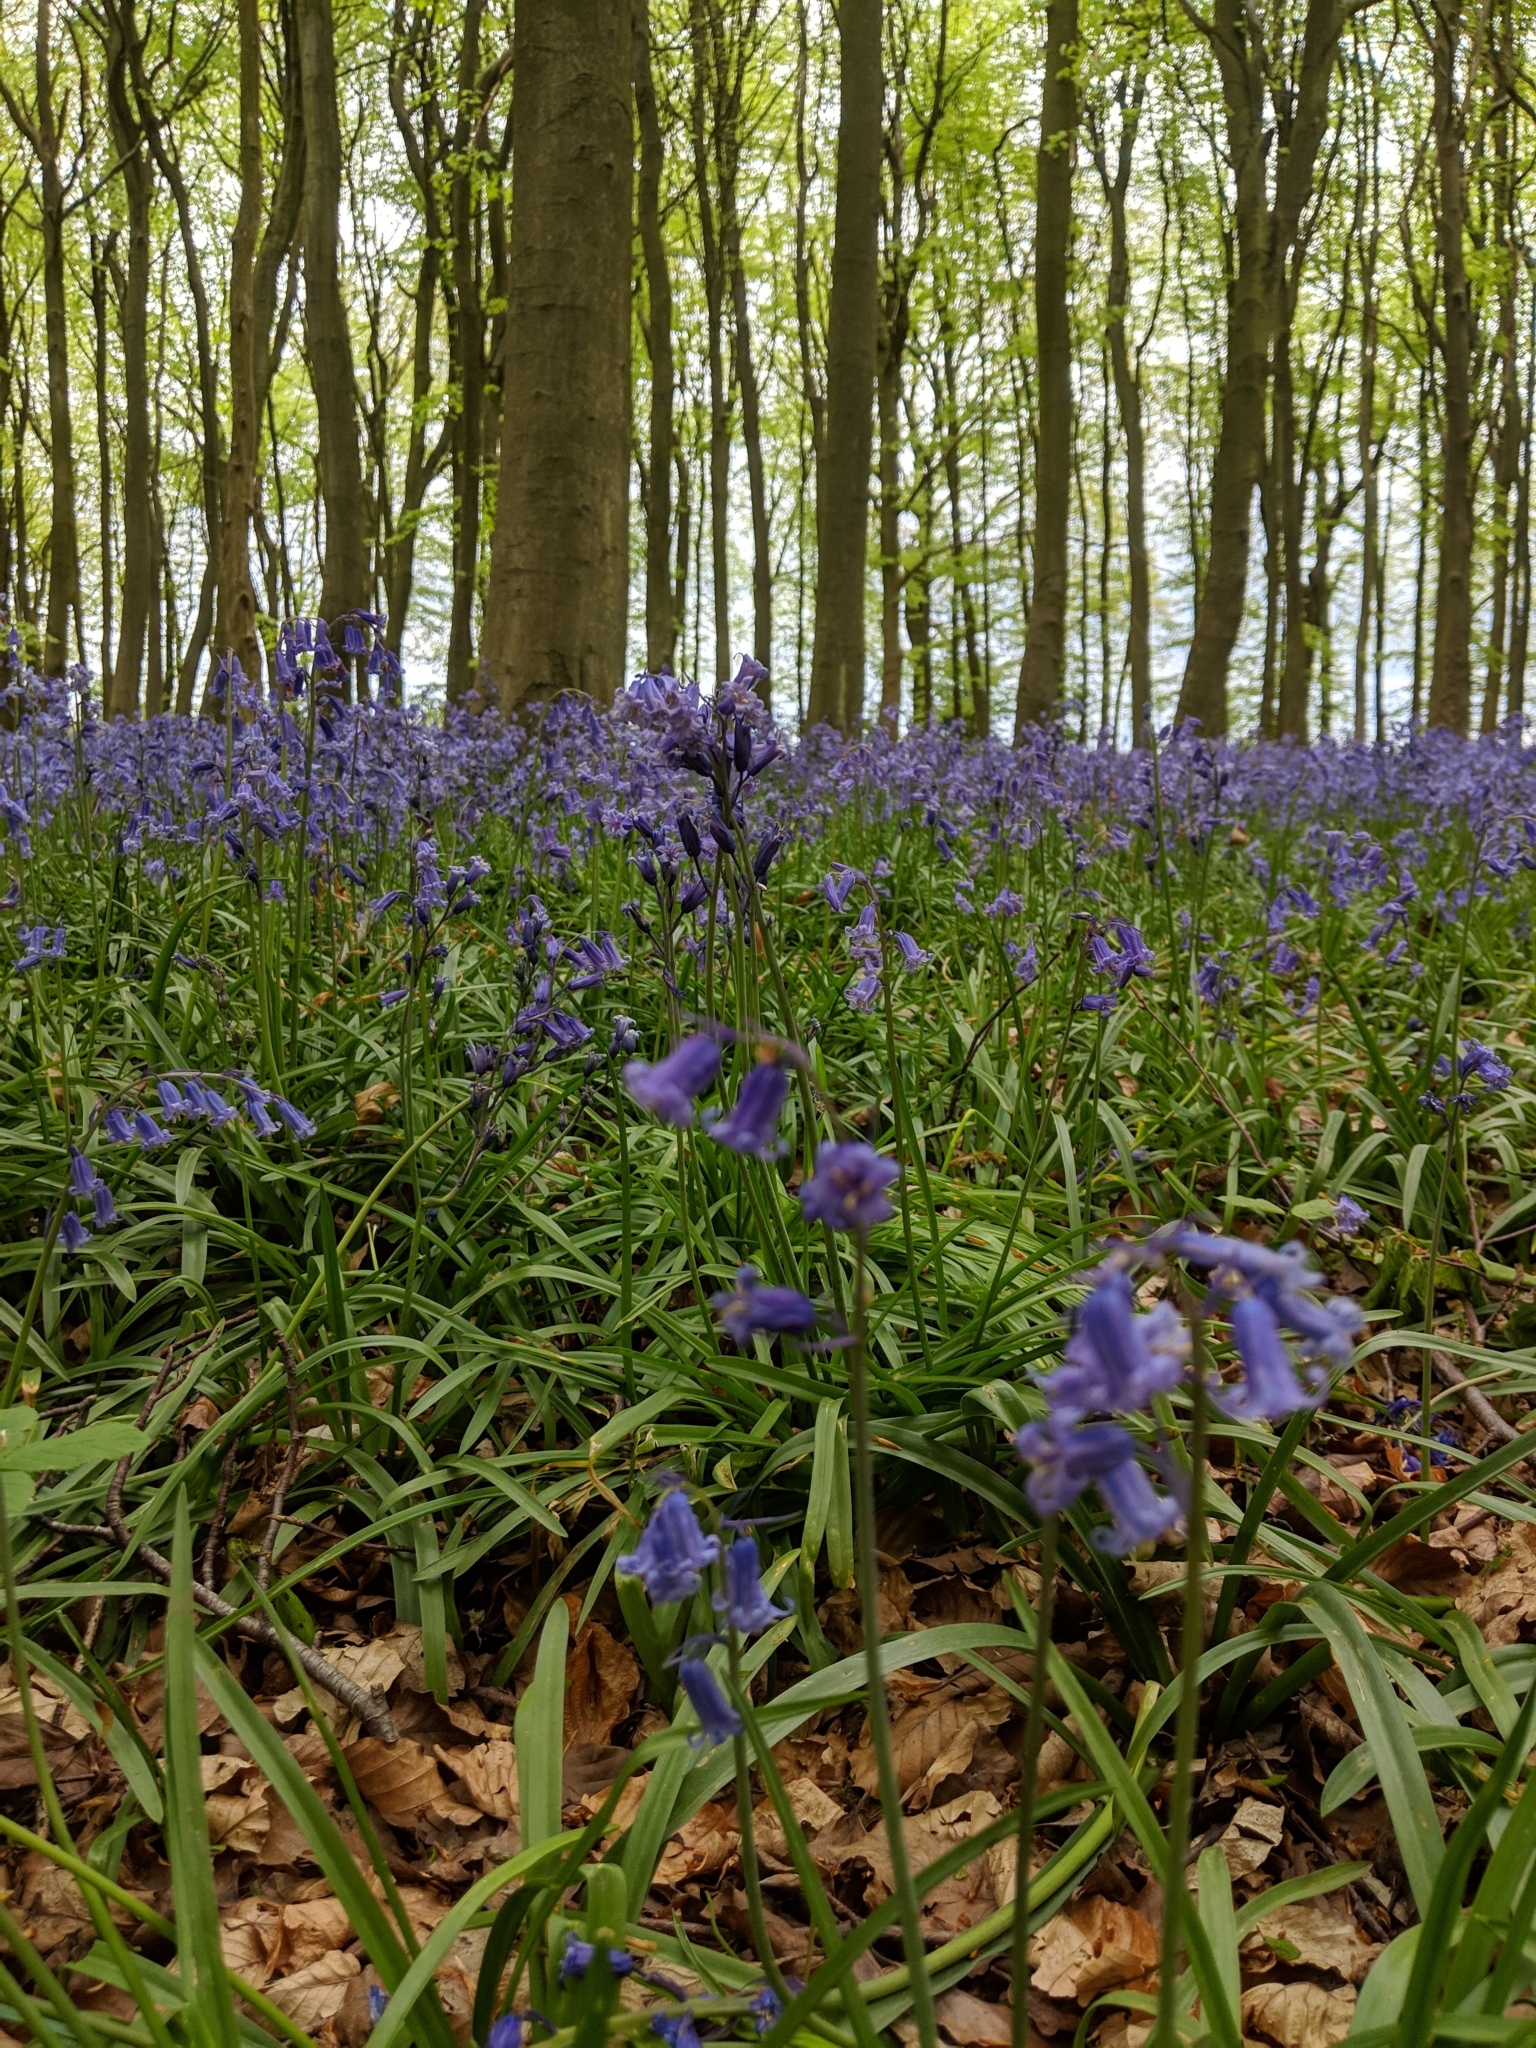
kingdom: Plantae
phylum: Tracheophyta
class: Liliopsida
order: Asparagales
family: Asparagaceae
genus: Hyacinthoides
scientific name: Hyacinthoides non-scripta
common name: Bluebell
